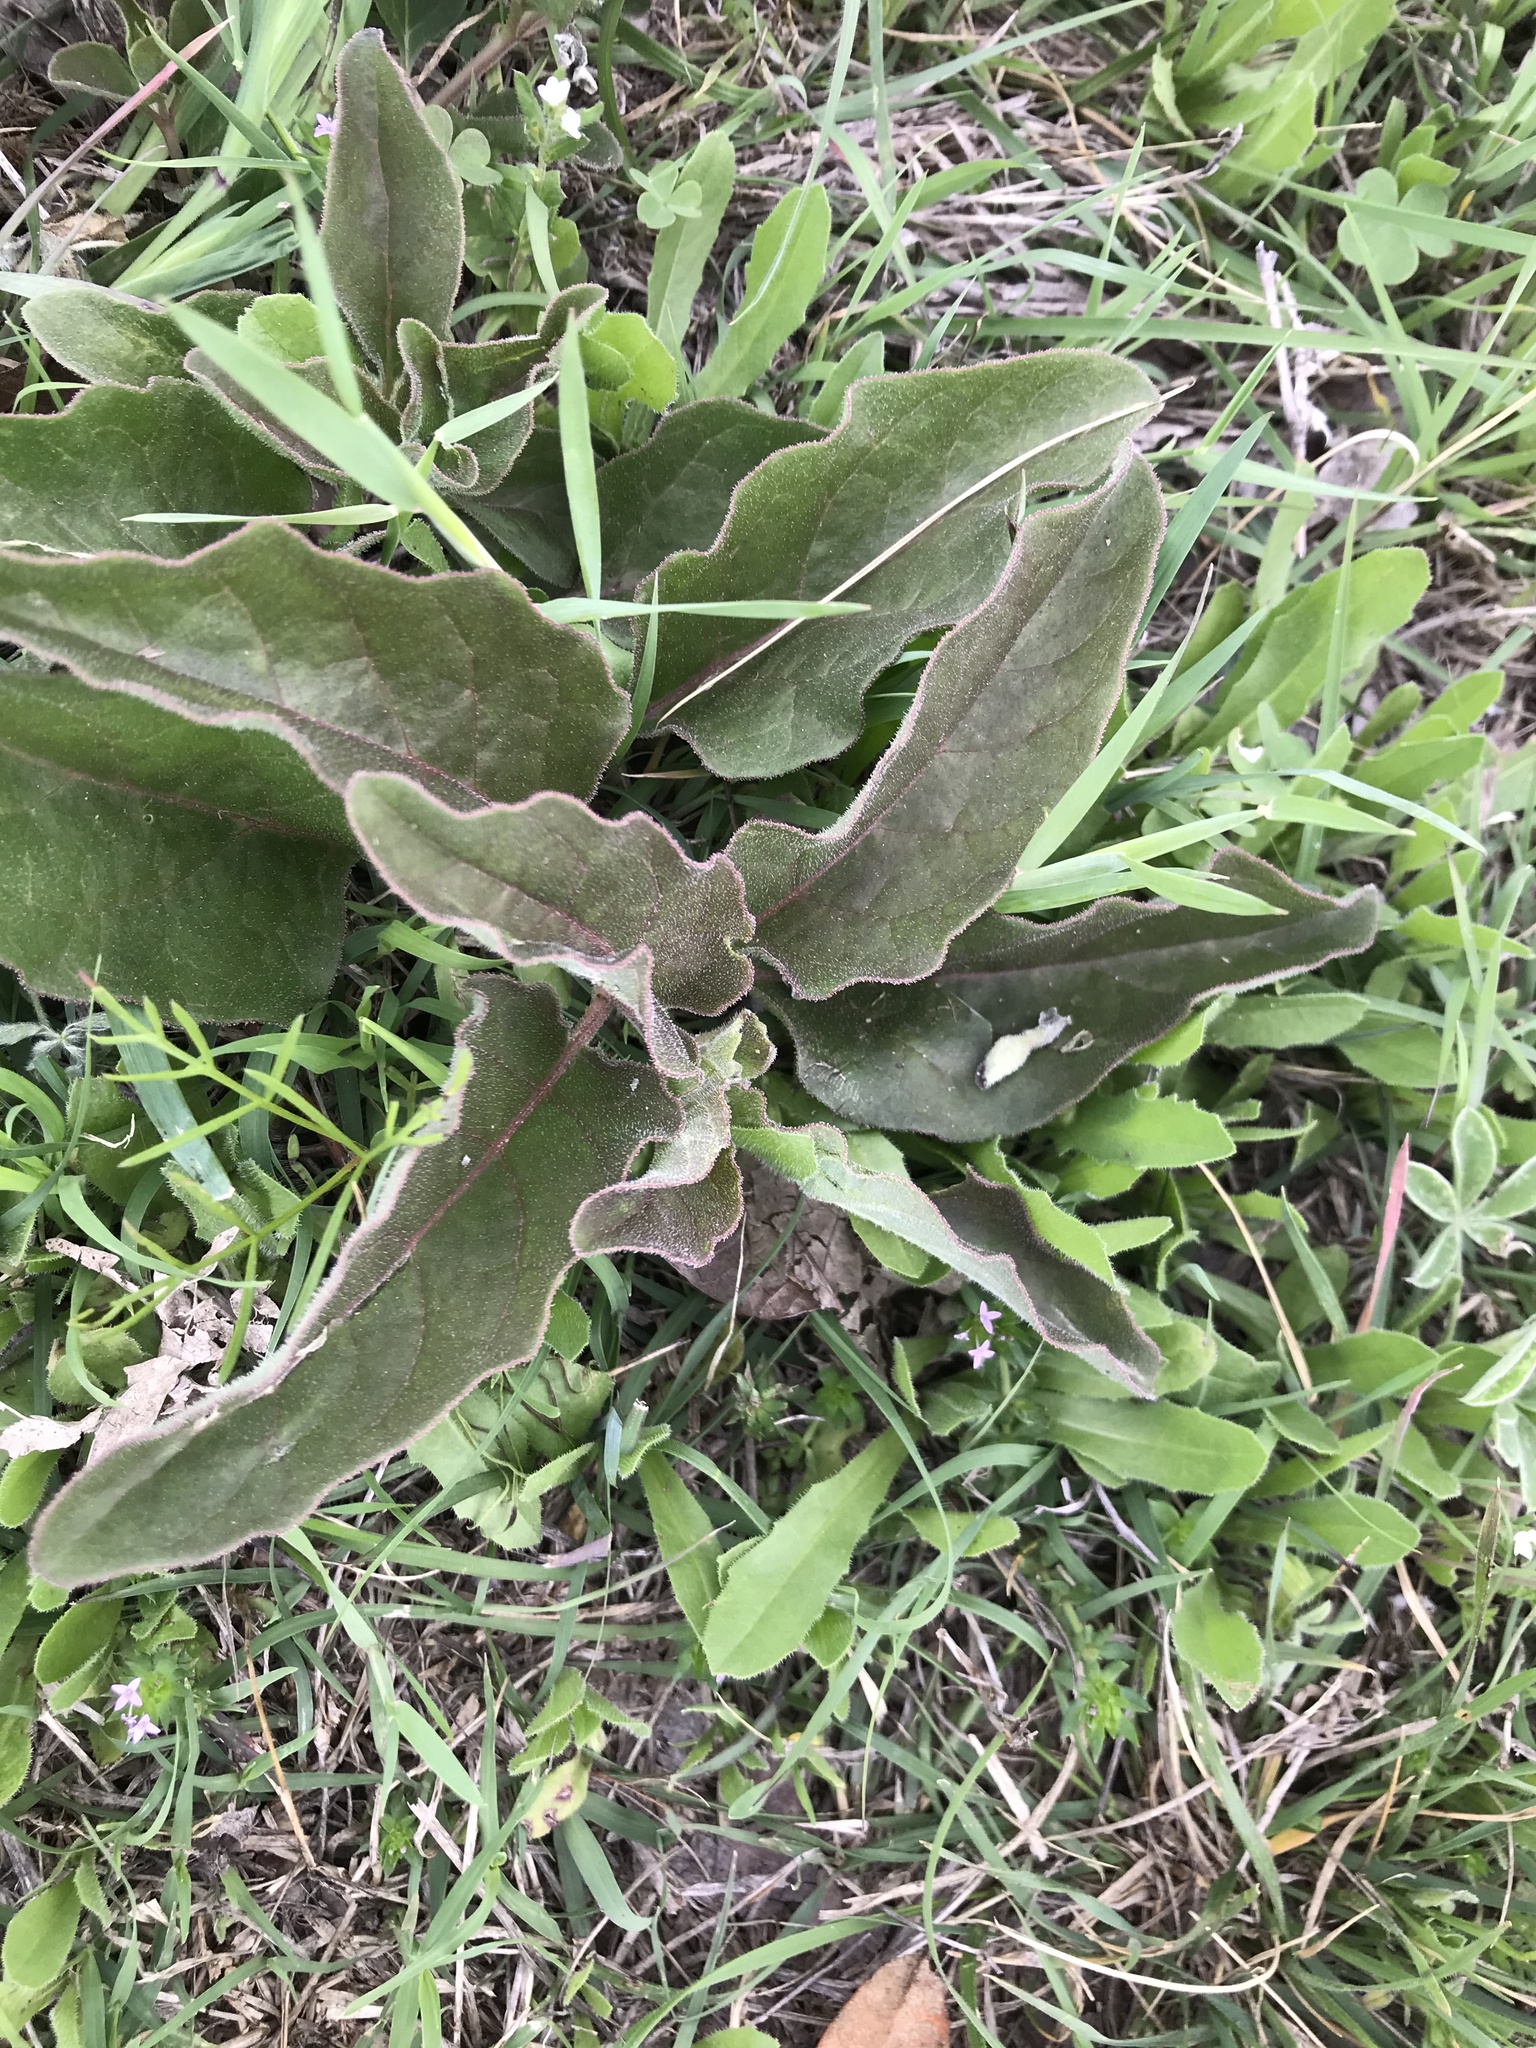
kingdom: Plantae
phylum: Tracheophyta
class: Magnoliopsida
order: Gentianales
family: Apocynaceae
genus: Asclepias
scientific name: Asclepias oenotheroides
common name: Zizotes milkweed
